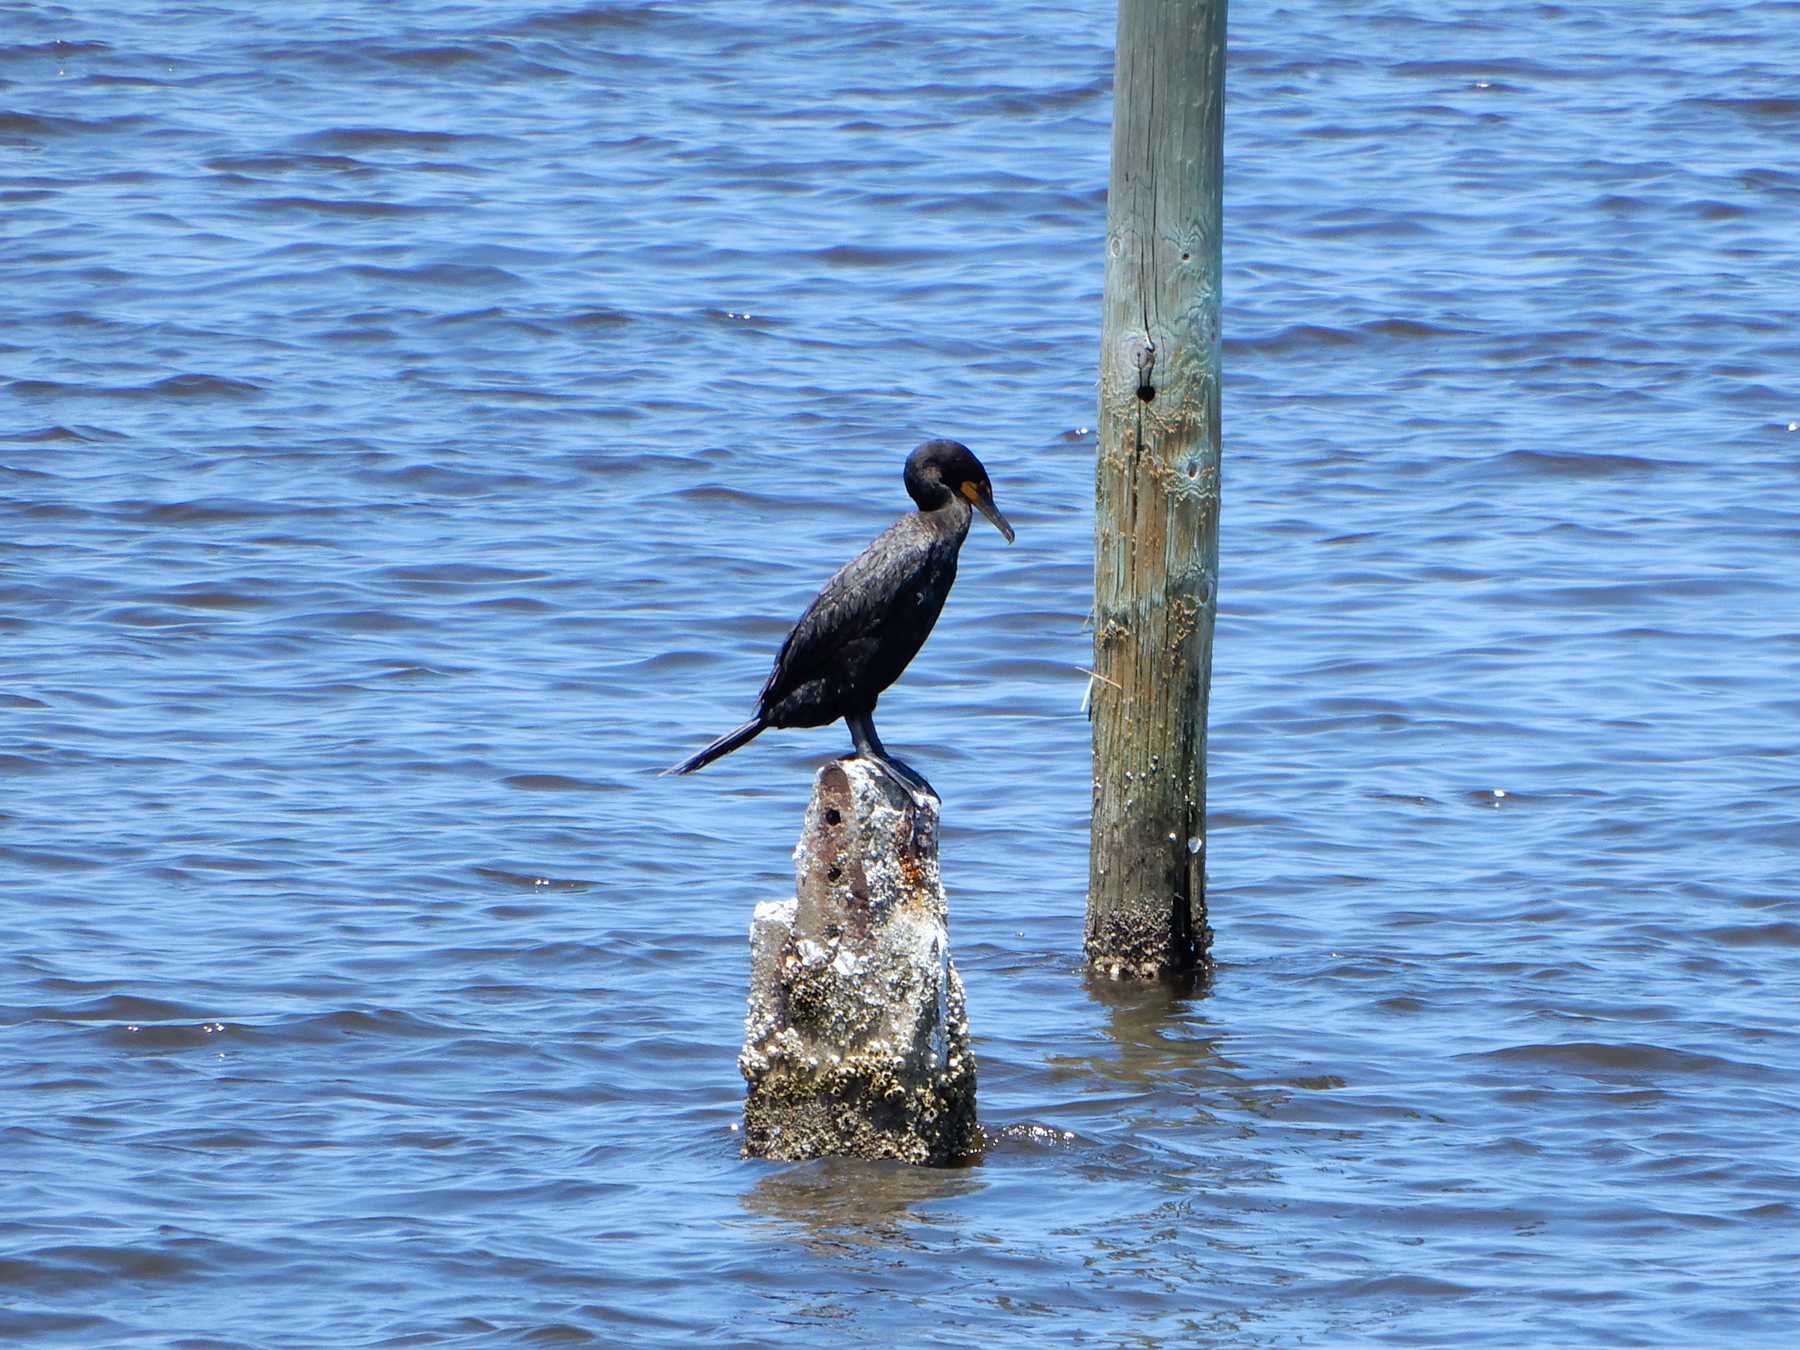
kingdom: Animalia
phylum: Chordata
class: Aves
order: Suliformes
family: Phalacrocoracidae
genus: Phalacrocorax
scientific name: Phalacrocorax auritus
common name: Double-crested cormorant
